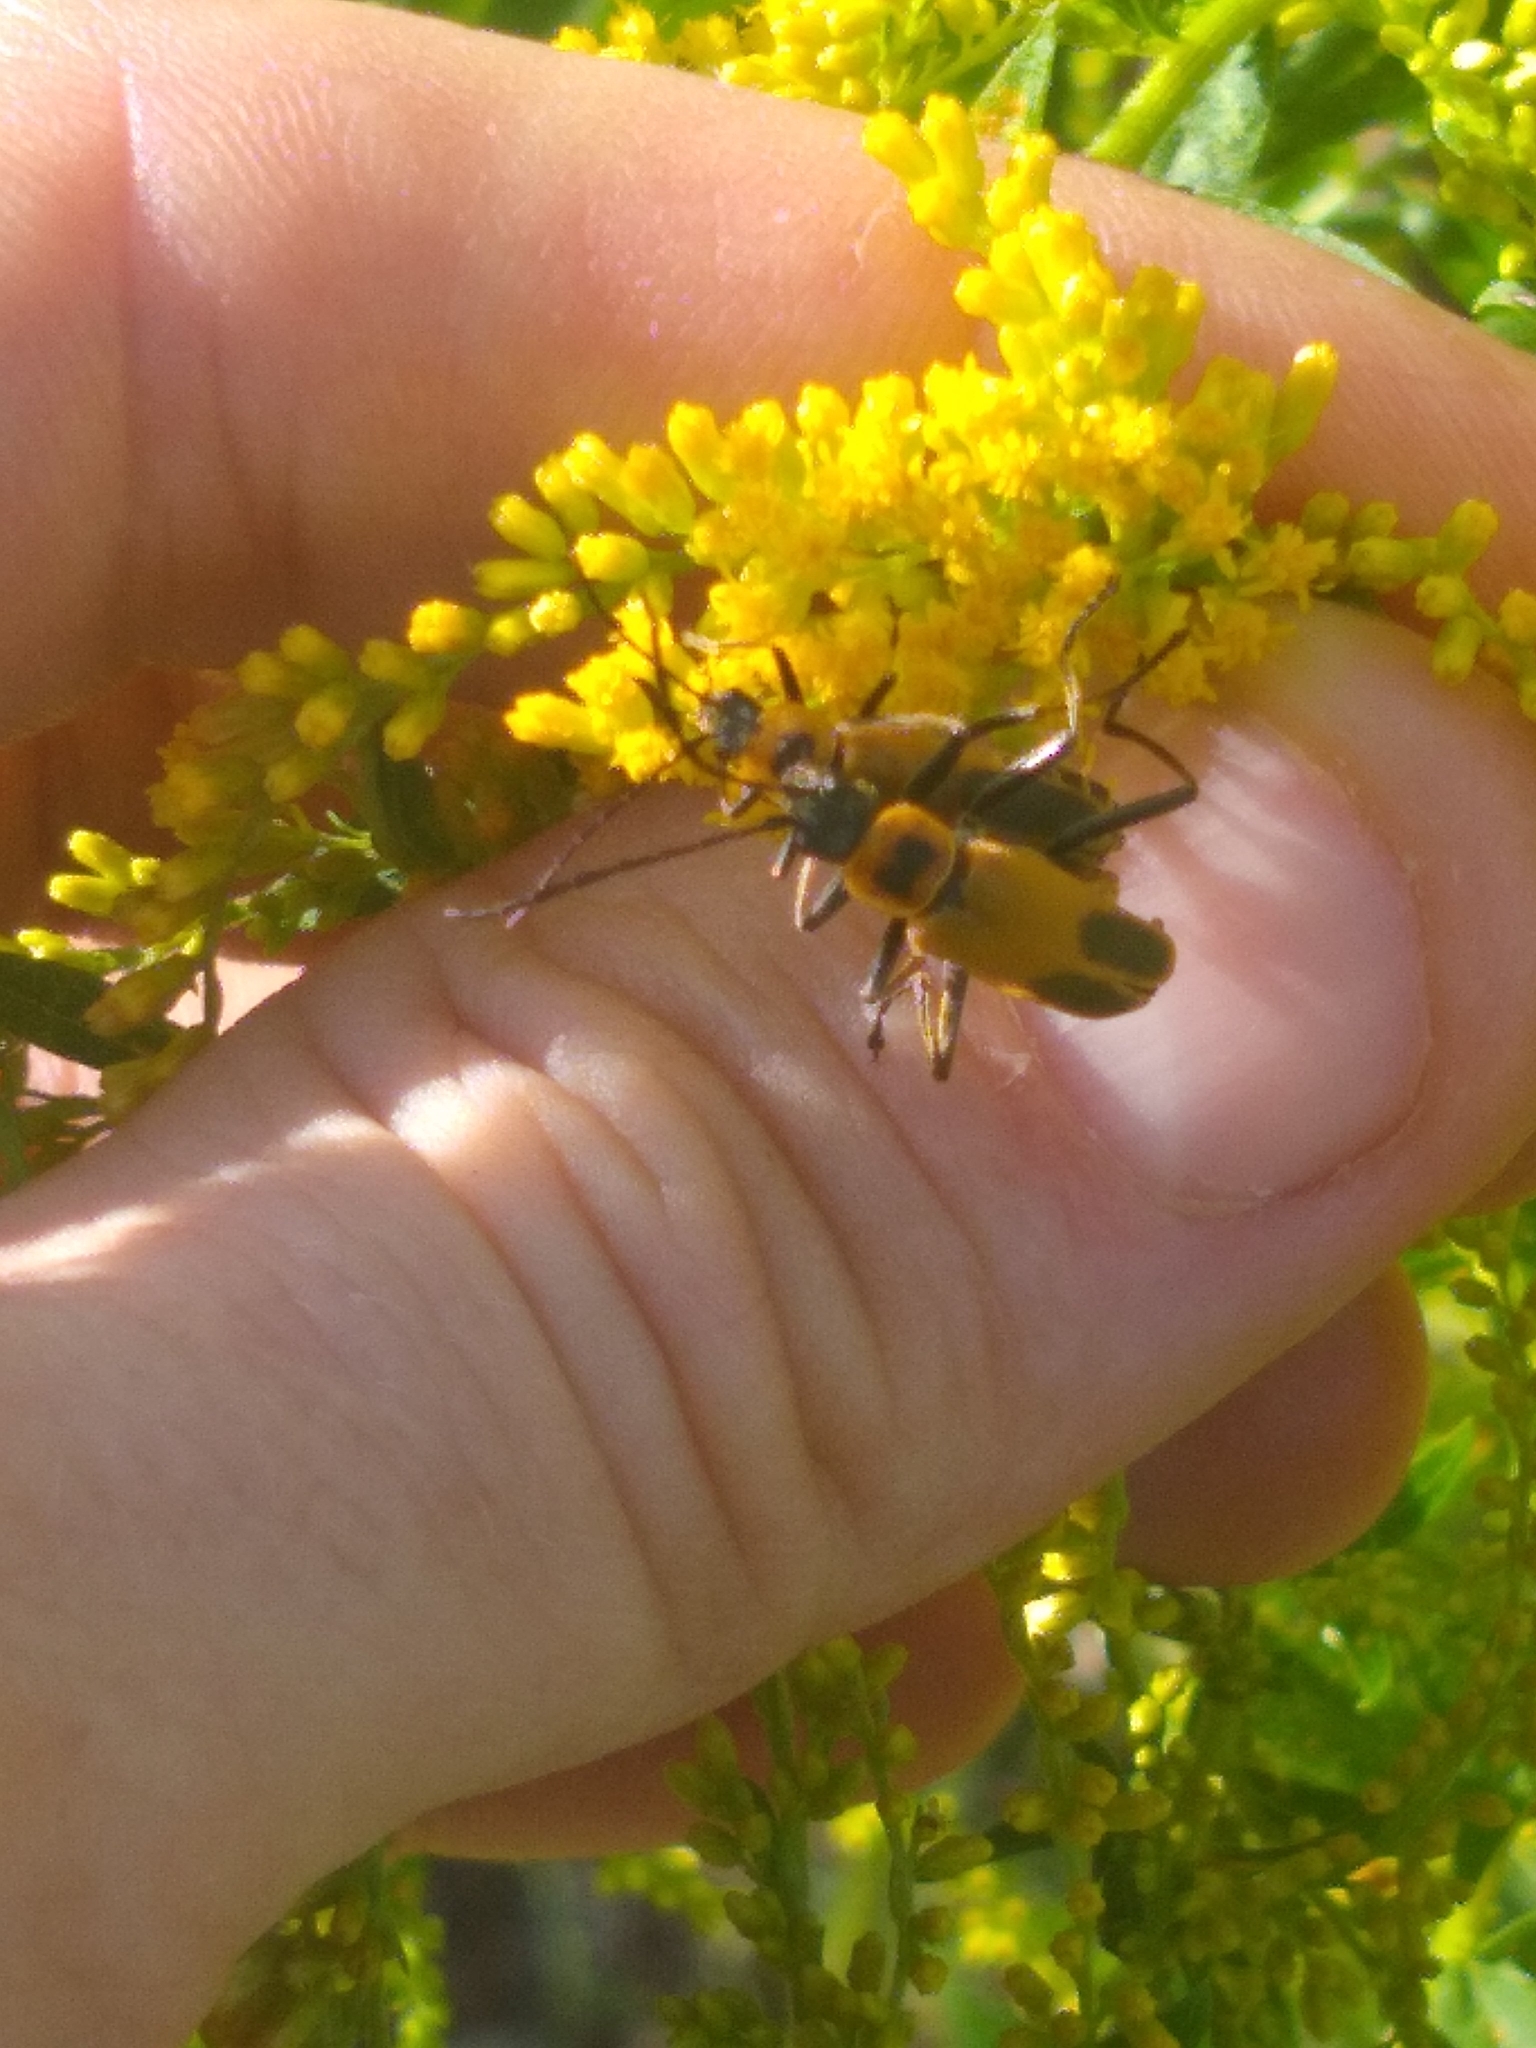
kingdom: Animalia
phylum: Arthropoda
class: Insecta
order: Coleoptera
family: Cantharidae
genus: Chauliognathus
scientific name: Chauliognathus pensylvanicus
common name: Goldenrod soldier beetle
